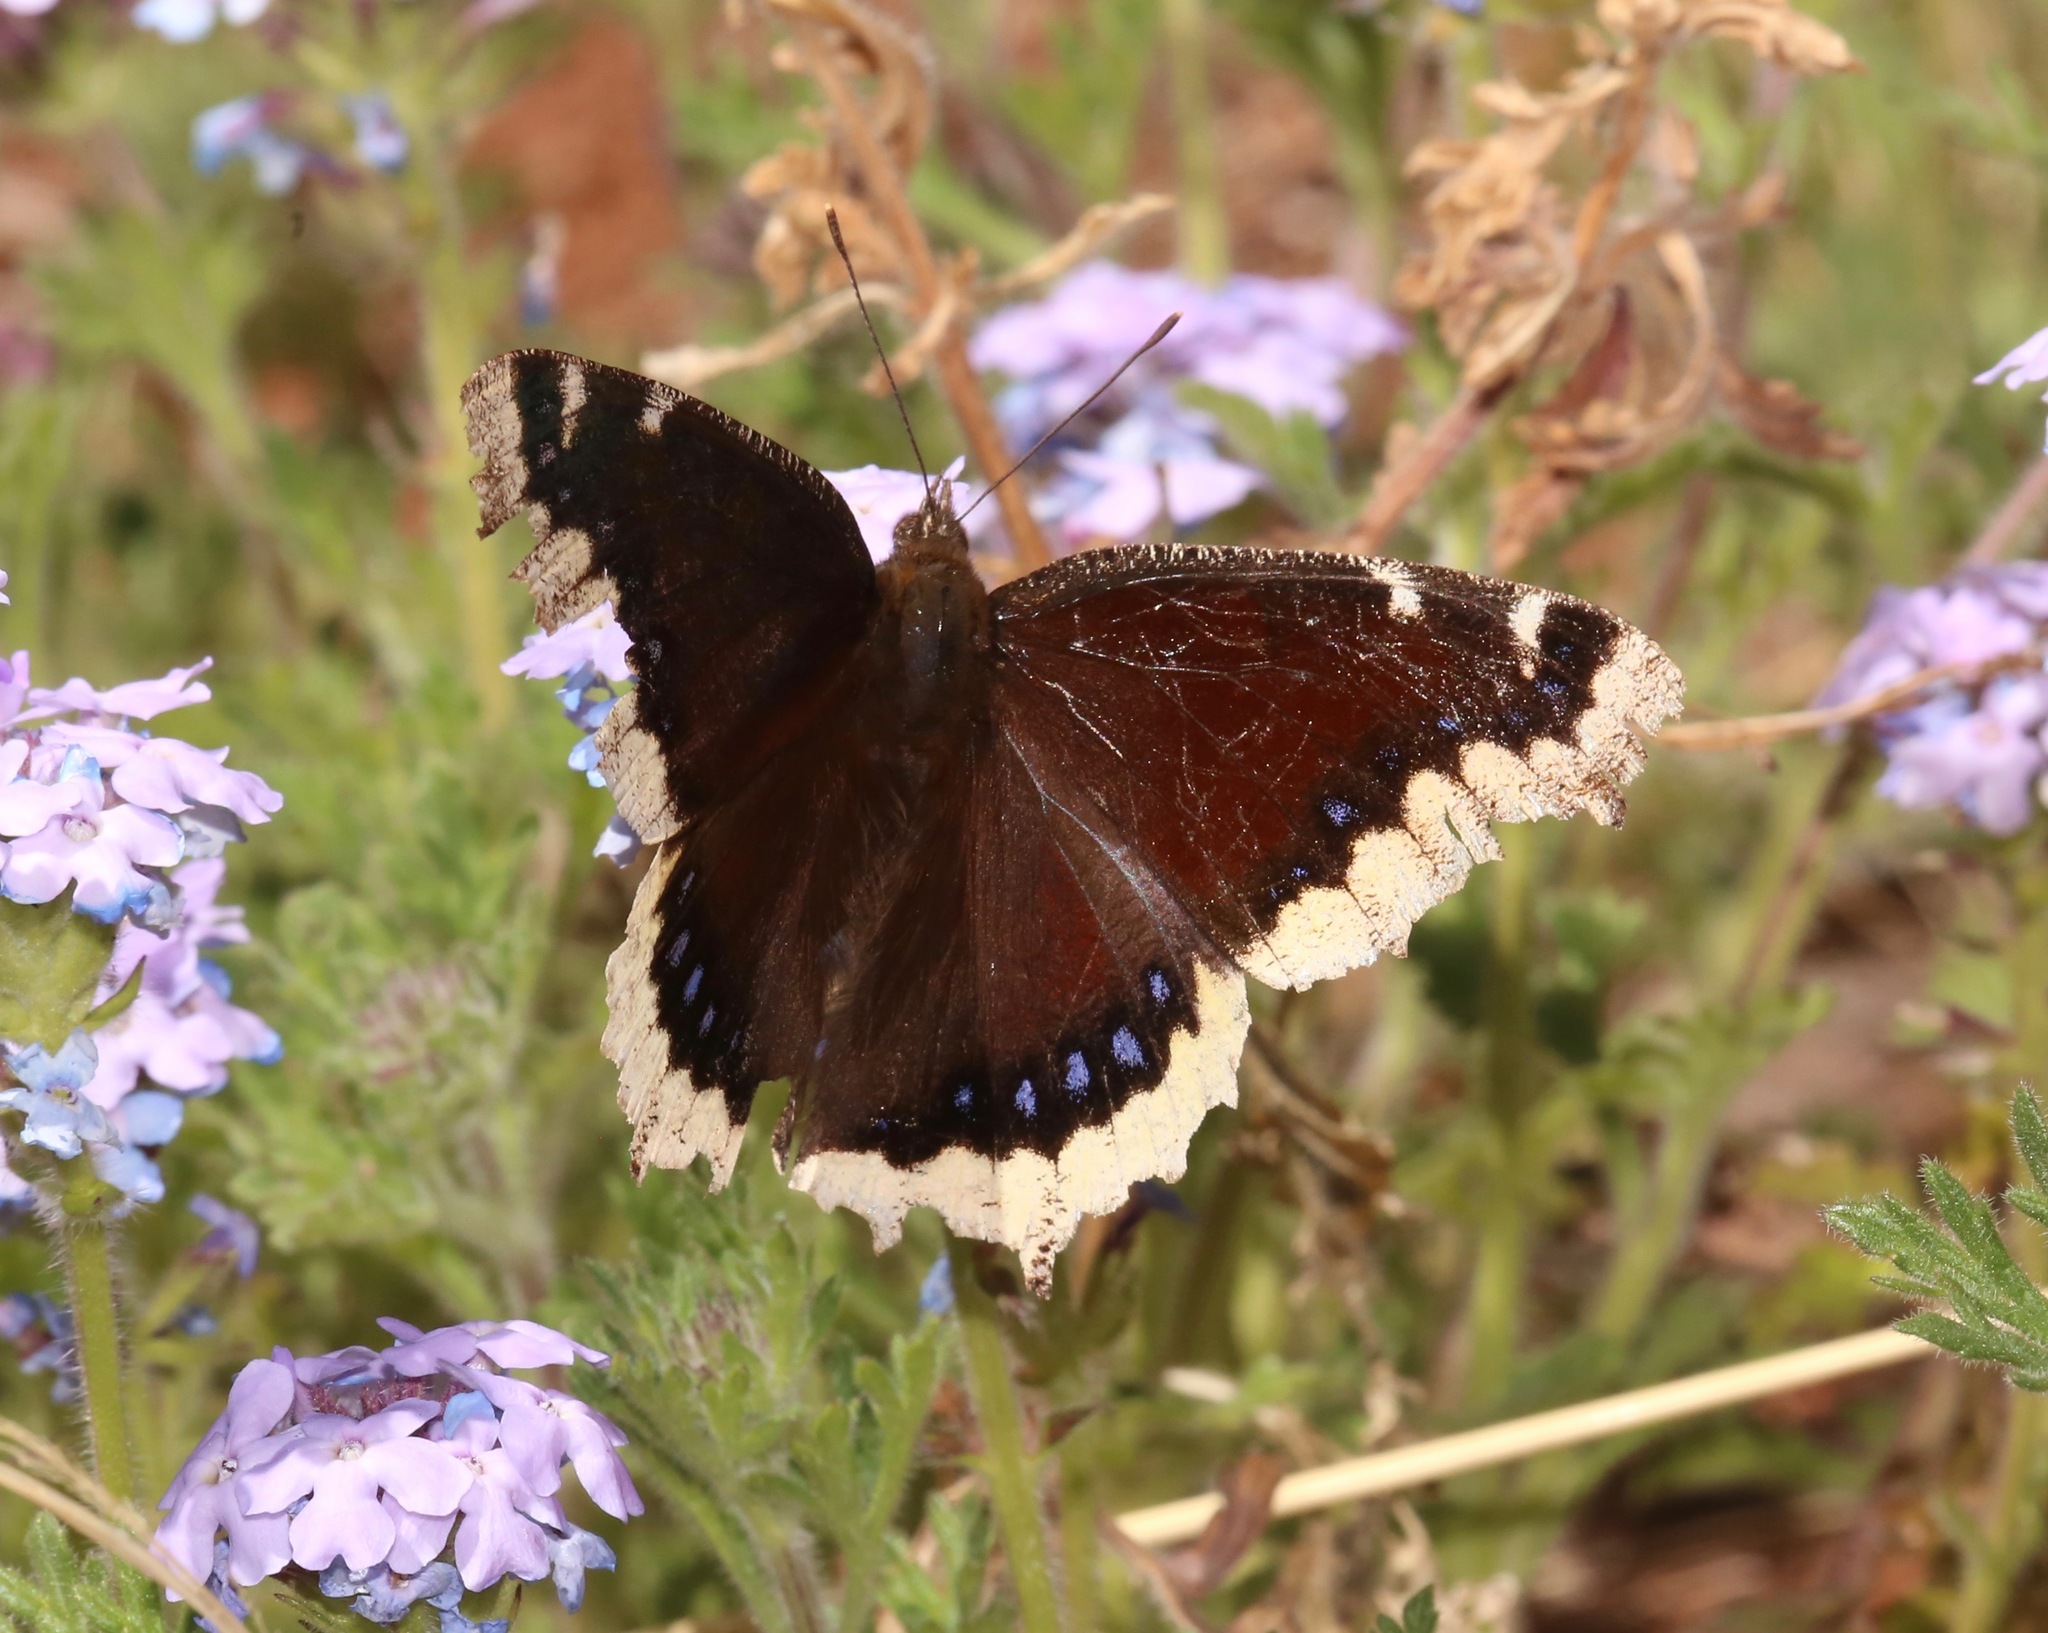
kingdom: Animalia
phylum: Arthropoda
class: Insecta
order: Lepidoptera
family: Nymphalidae
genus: Nymphalis
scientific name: Nymphalis antiopa
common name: Camberwell beauty
